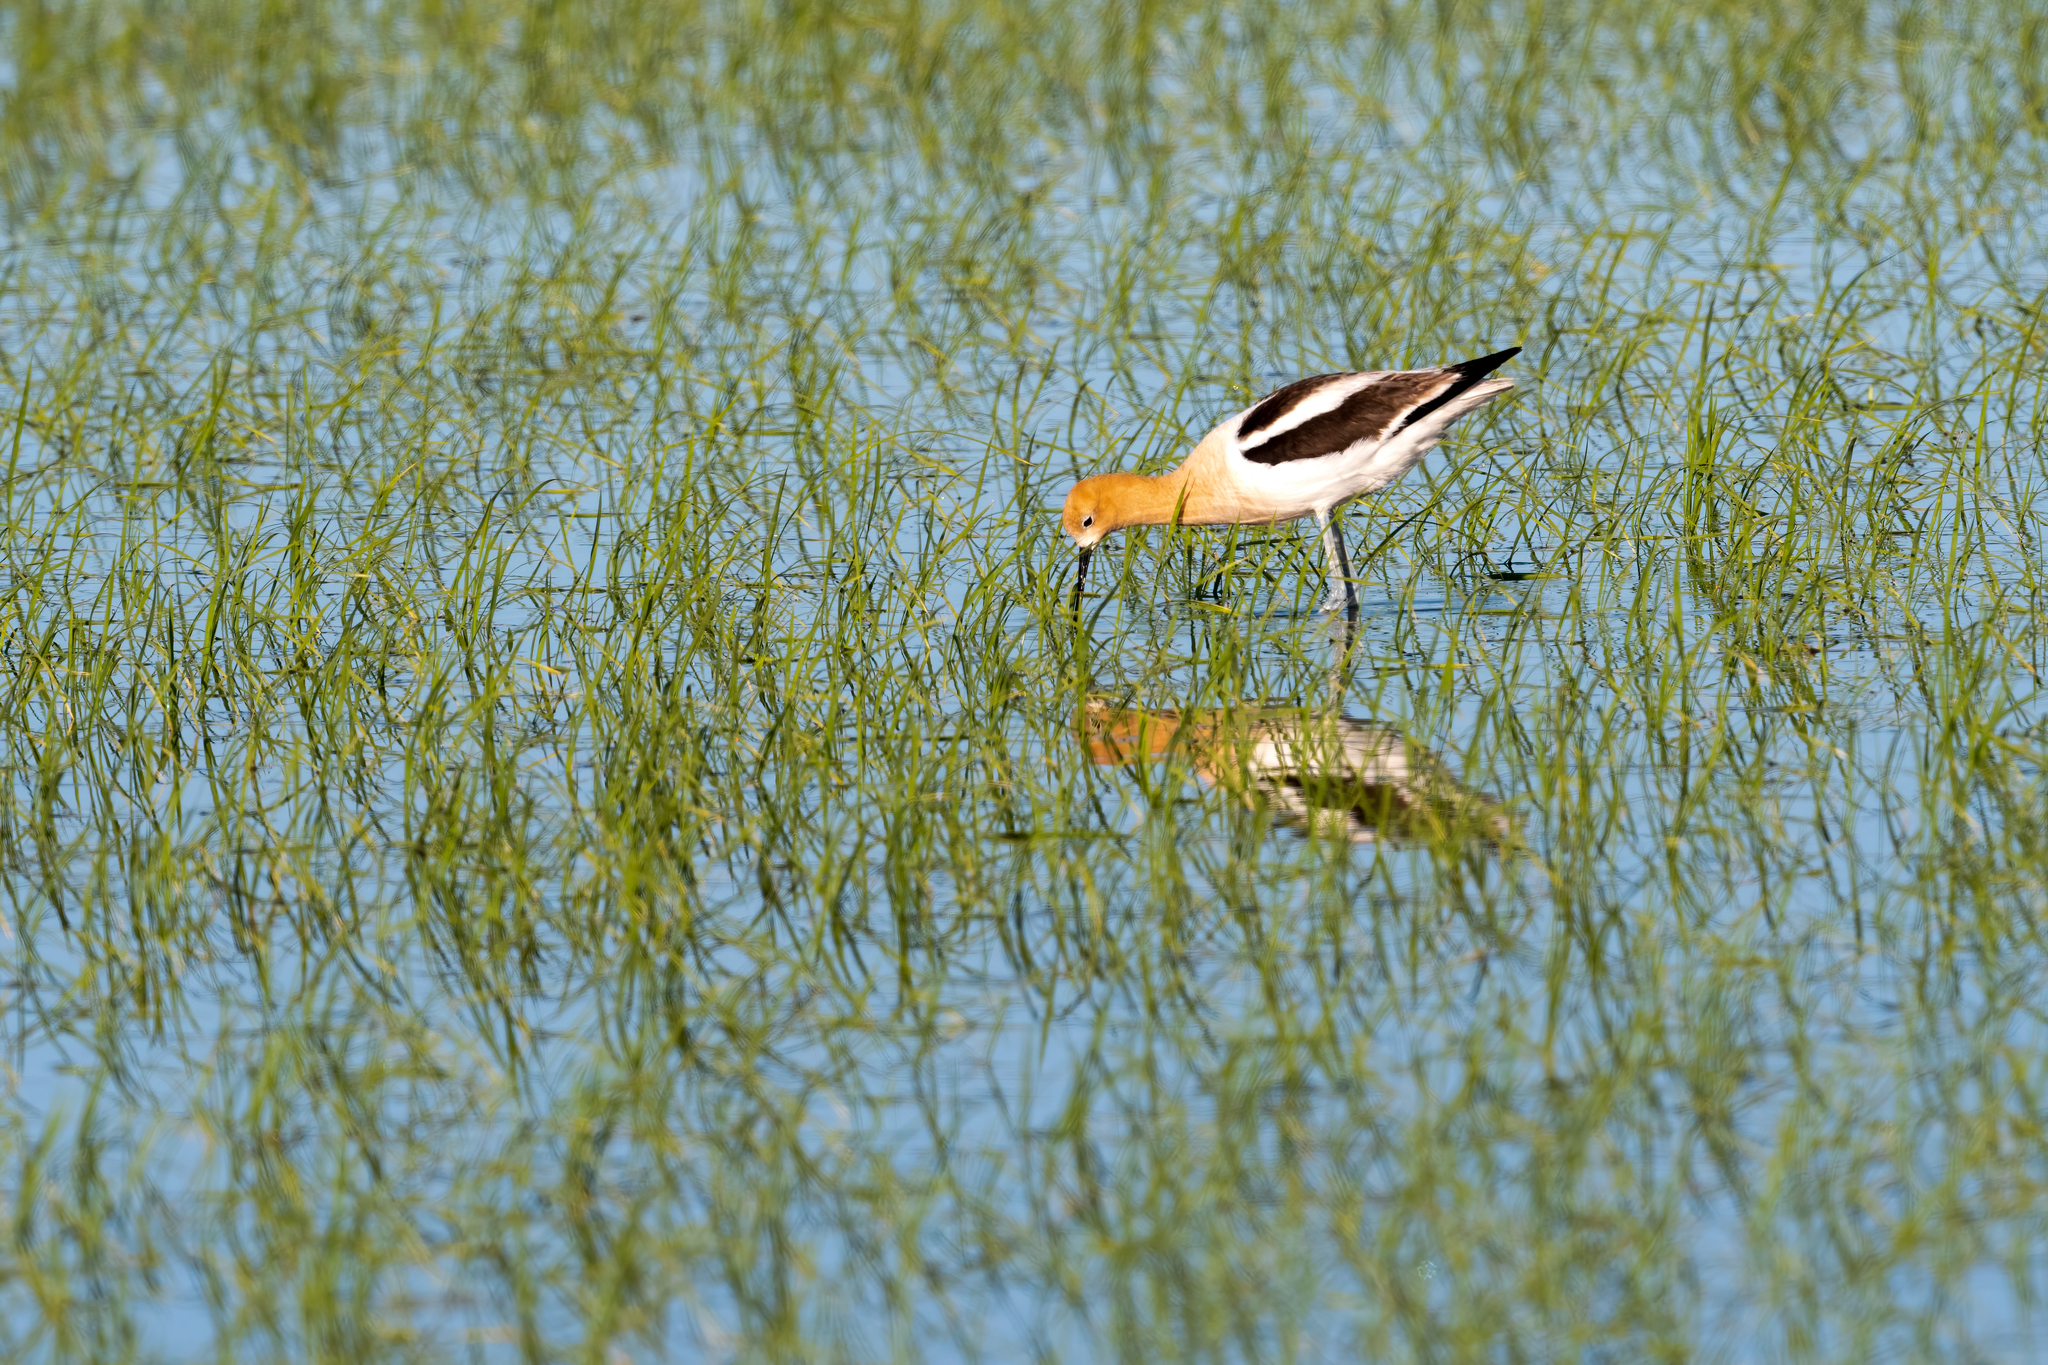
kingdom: Animalia
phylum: Chordata
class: Aves
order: Charadriiformes
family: Recurvirostridae
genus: Recurvirostra
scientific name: Recurvirostra americana
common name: American avocet
